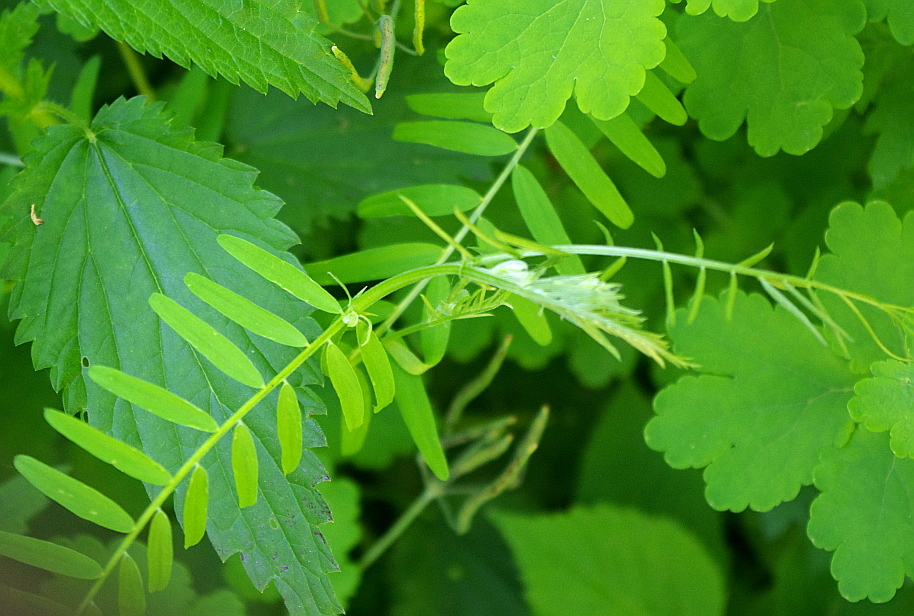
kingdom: Plantae
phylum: Tracheophyta
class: Magnoliopsida
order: Fabales
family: Fabaceae
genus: Vicia
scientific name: Vicia cracca
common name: Bird vetch
